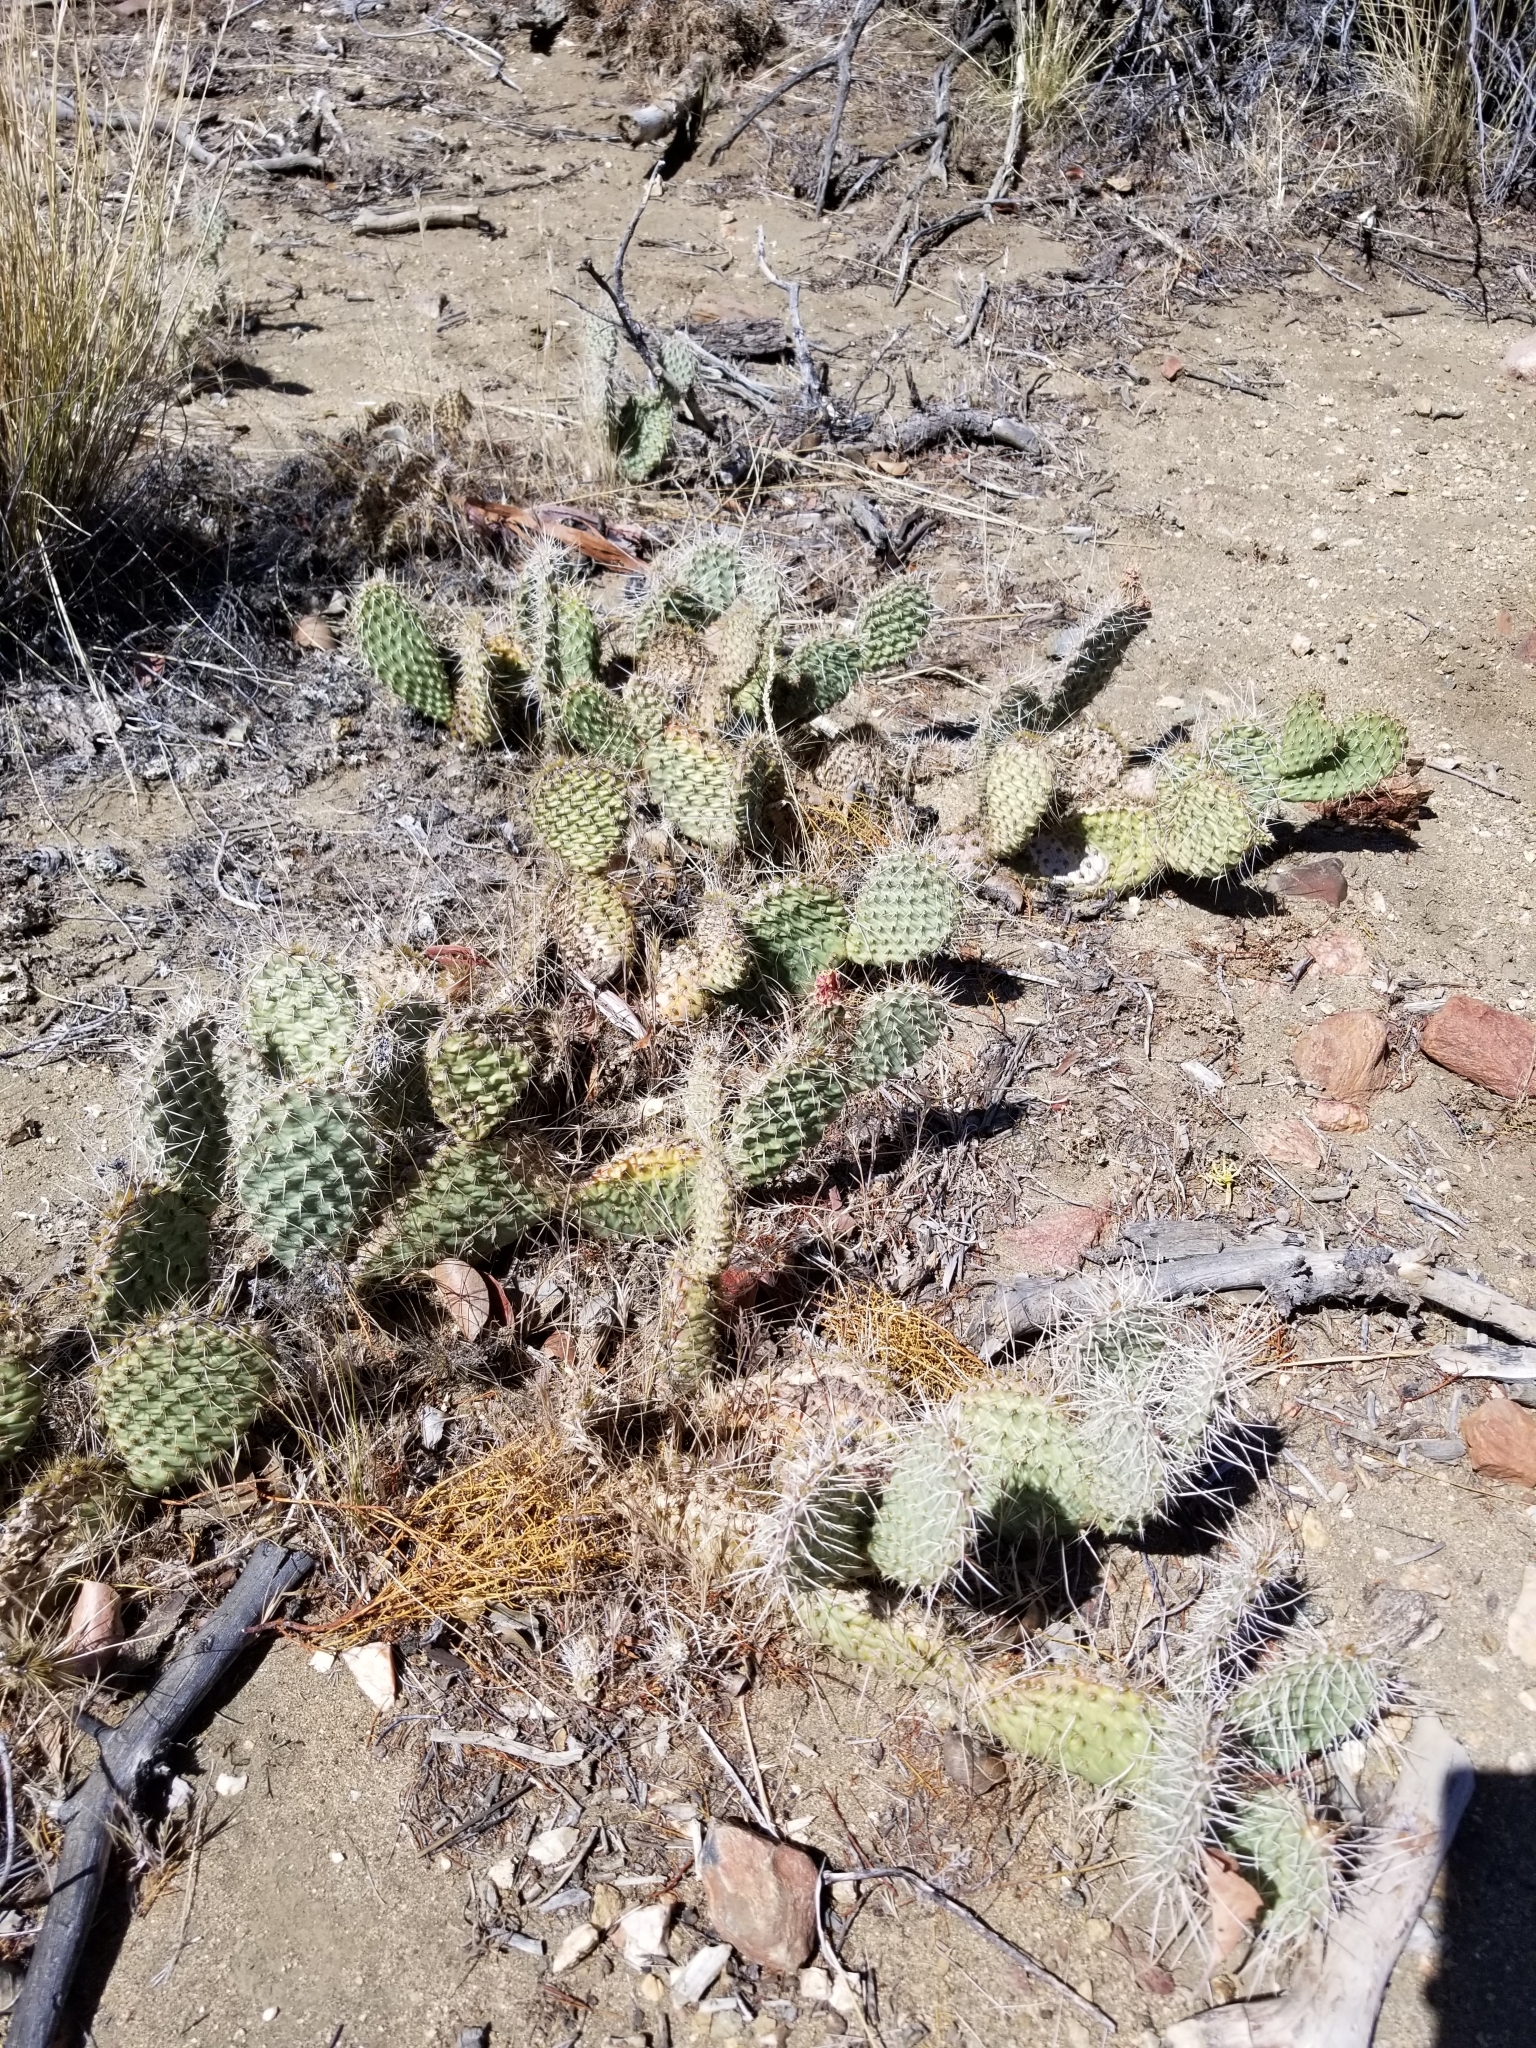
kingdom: Plantae
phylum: Tracheophyta
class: Magnoliopsida
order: Caryophyllales
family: Cactaceae
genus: Opuntia
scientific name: Opuntia polyacantha
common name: Plains prickly-pear
